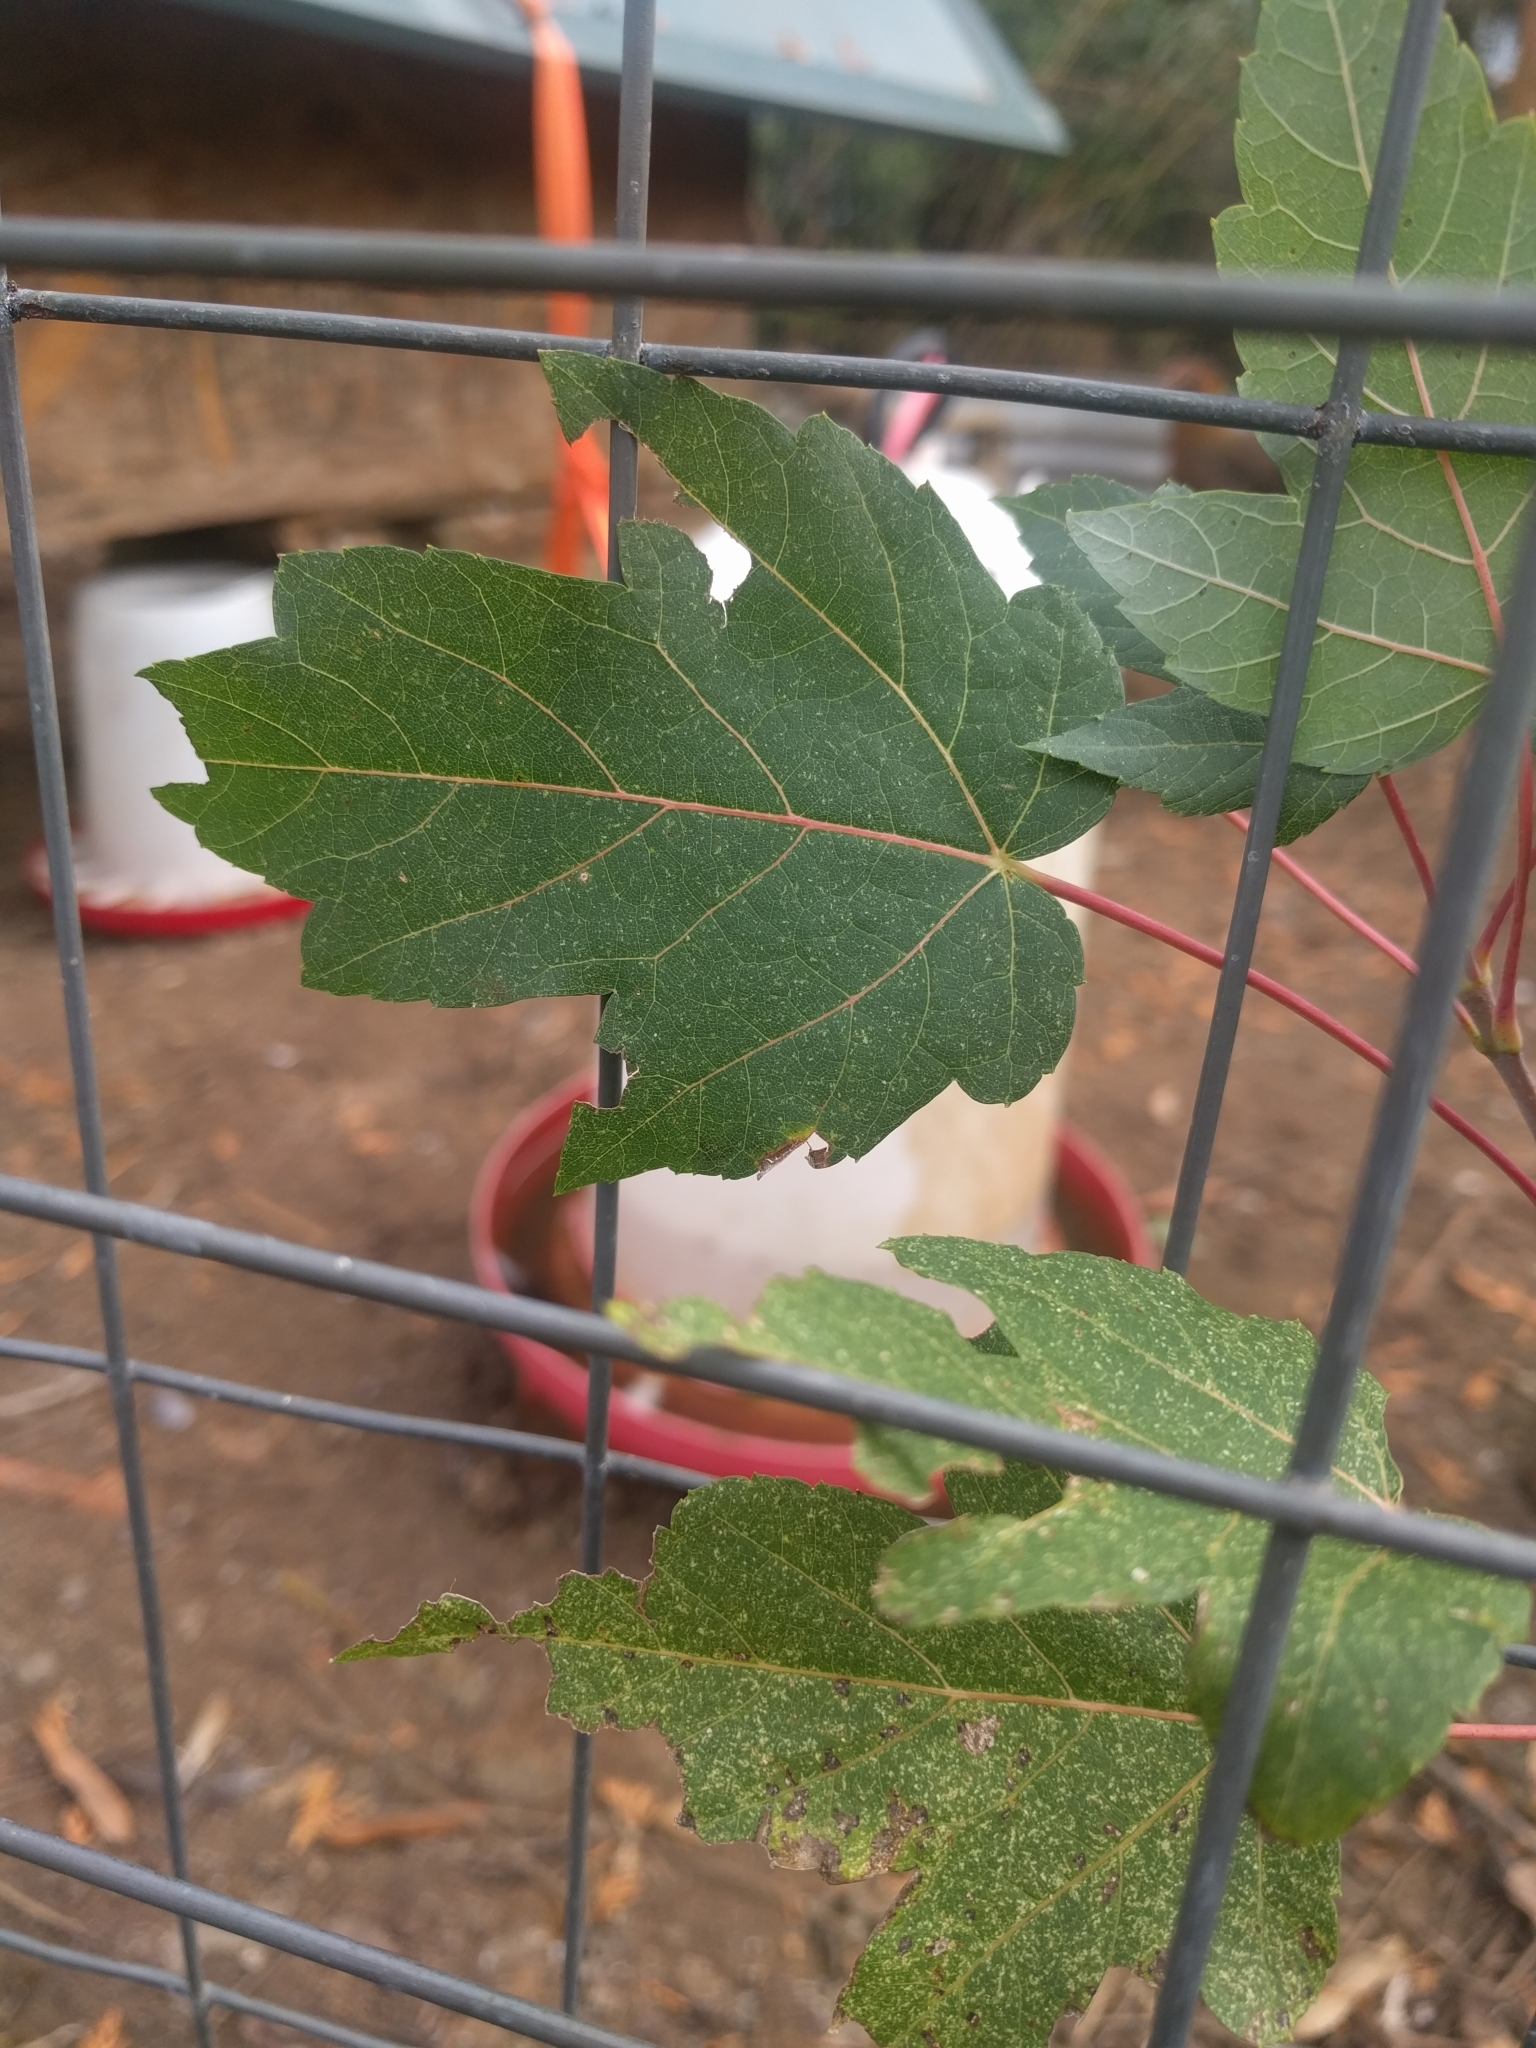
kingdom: Plantae
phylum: Tracheophyta
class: Magnoliopsida
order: Sapindales
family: Sapindaceae
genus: Acer
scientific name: Acer rubrum
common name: Red maple
